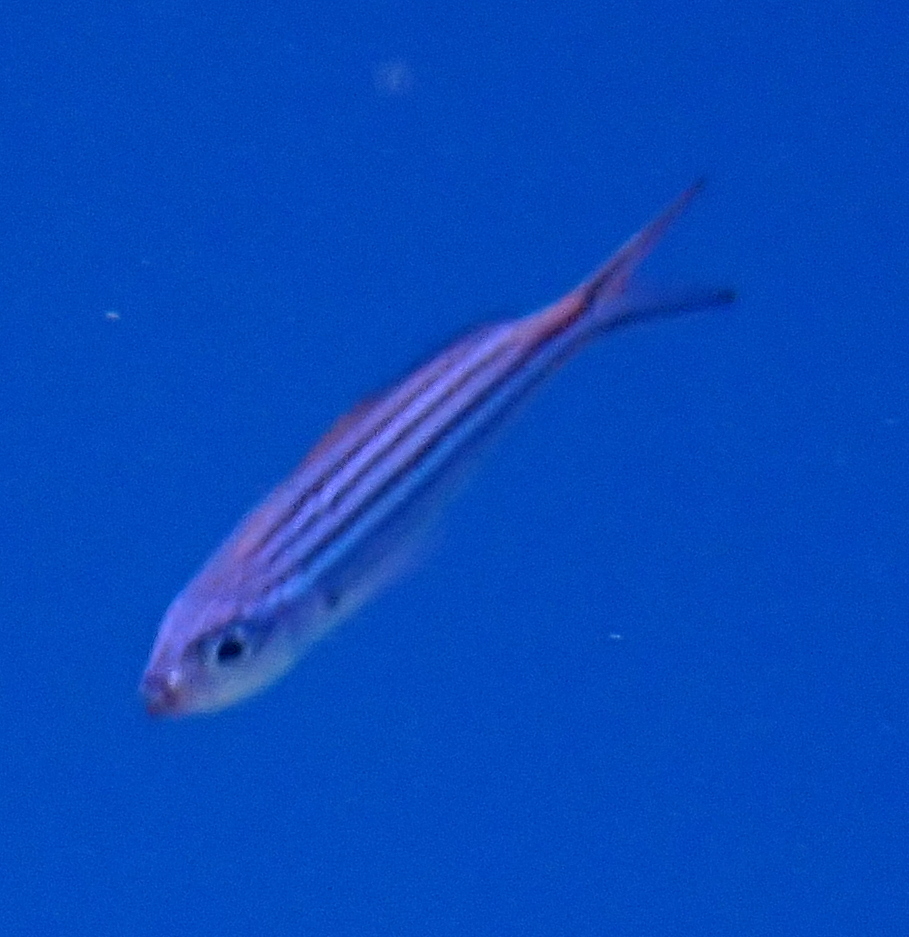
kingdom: Animalia
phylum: Chordata
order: Perciformes
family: Caesionidae
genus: Caesio
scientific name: Caesio striata
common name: Striated fusilier
